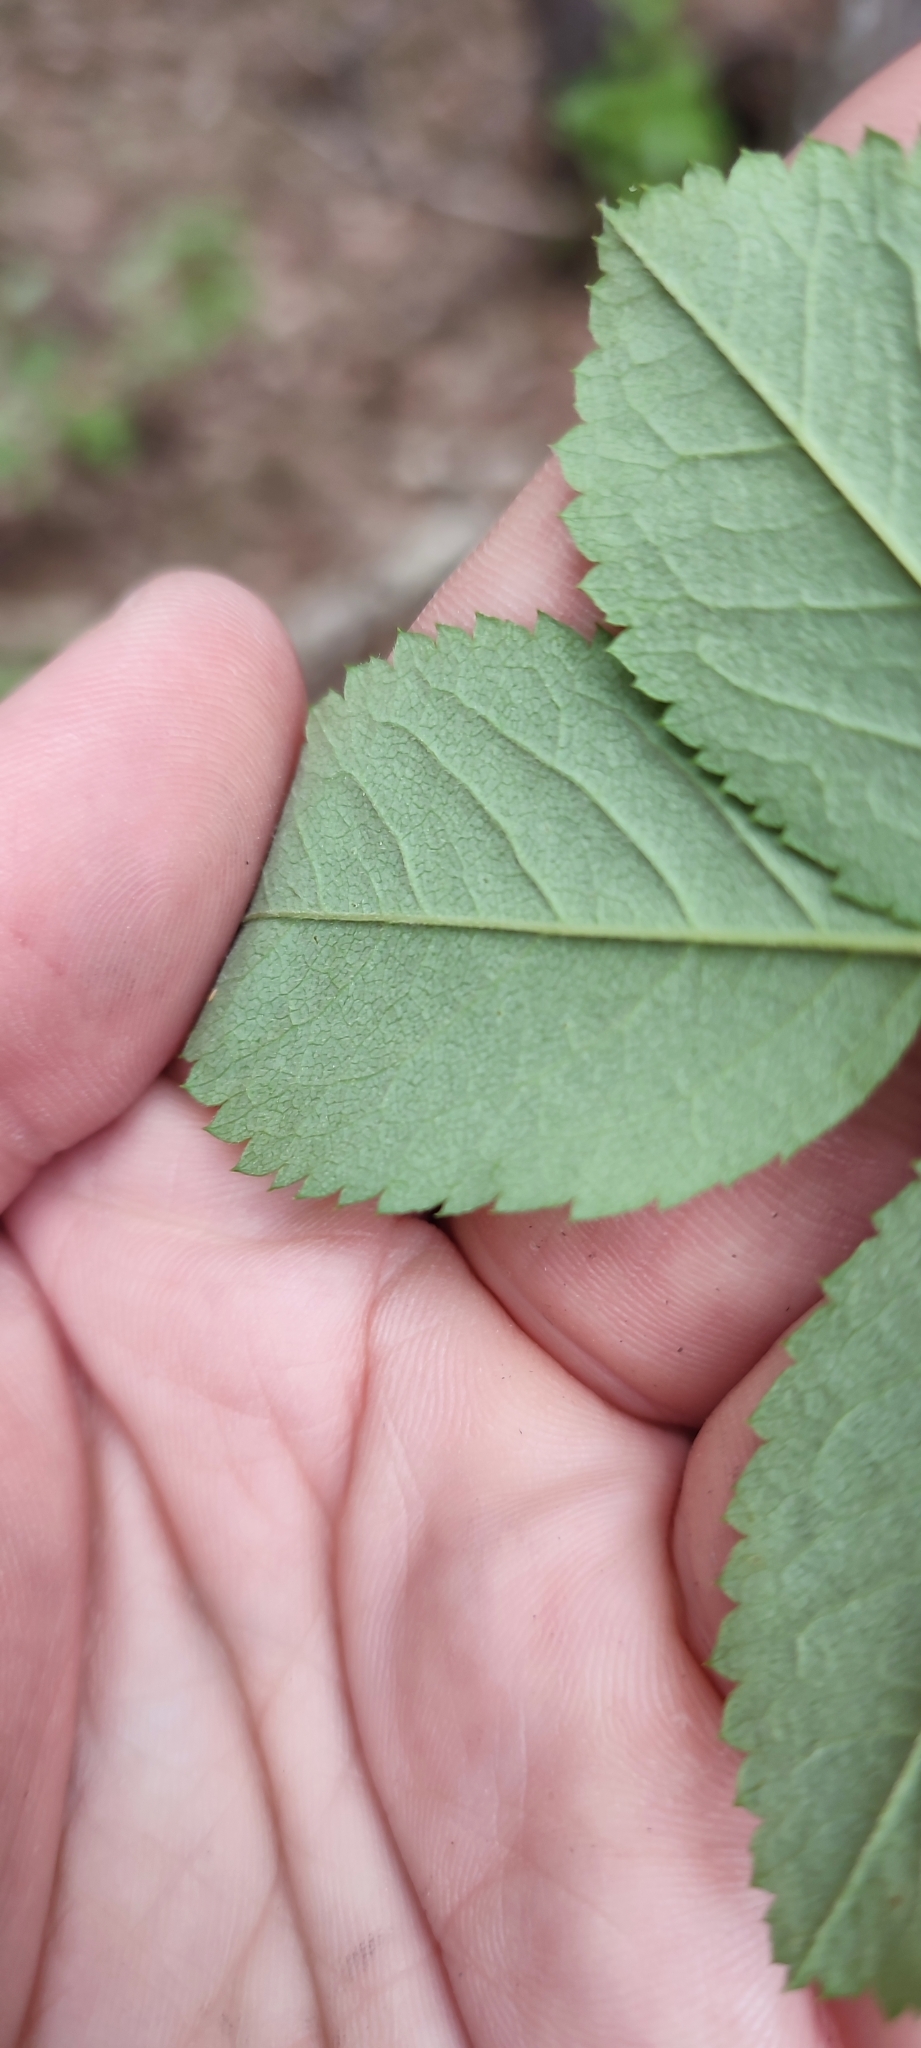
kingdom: Plantae
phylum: Tracheophyta
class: Magnoliopsida
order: Rosales
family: Rosaceae
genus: Rosa
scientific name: Rosa majalis
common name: Cinnamon rose
